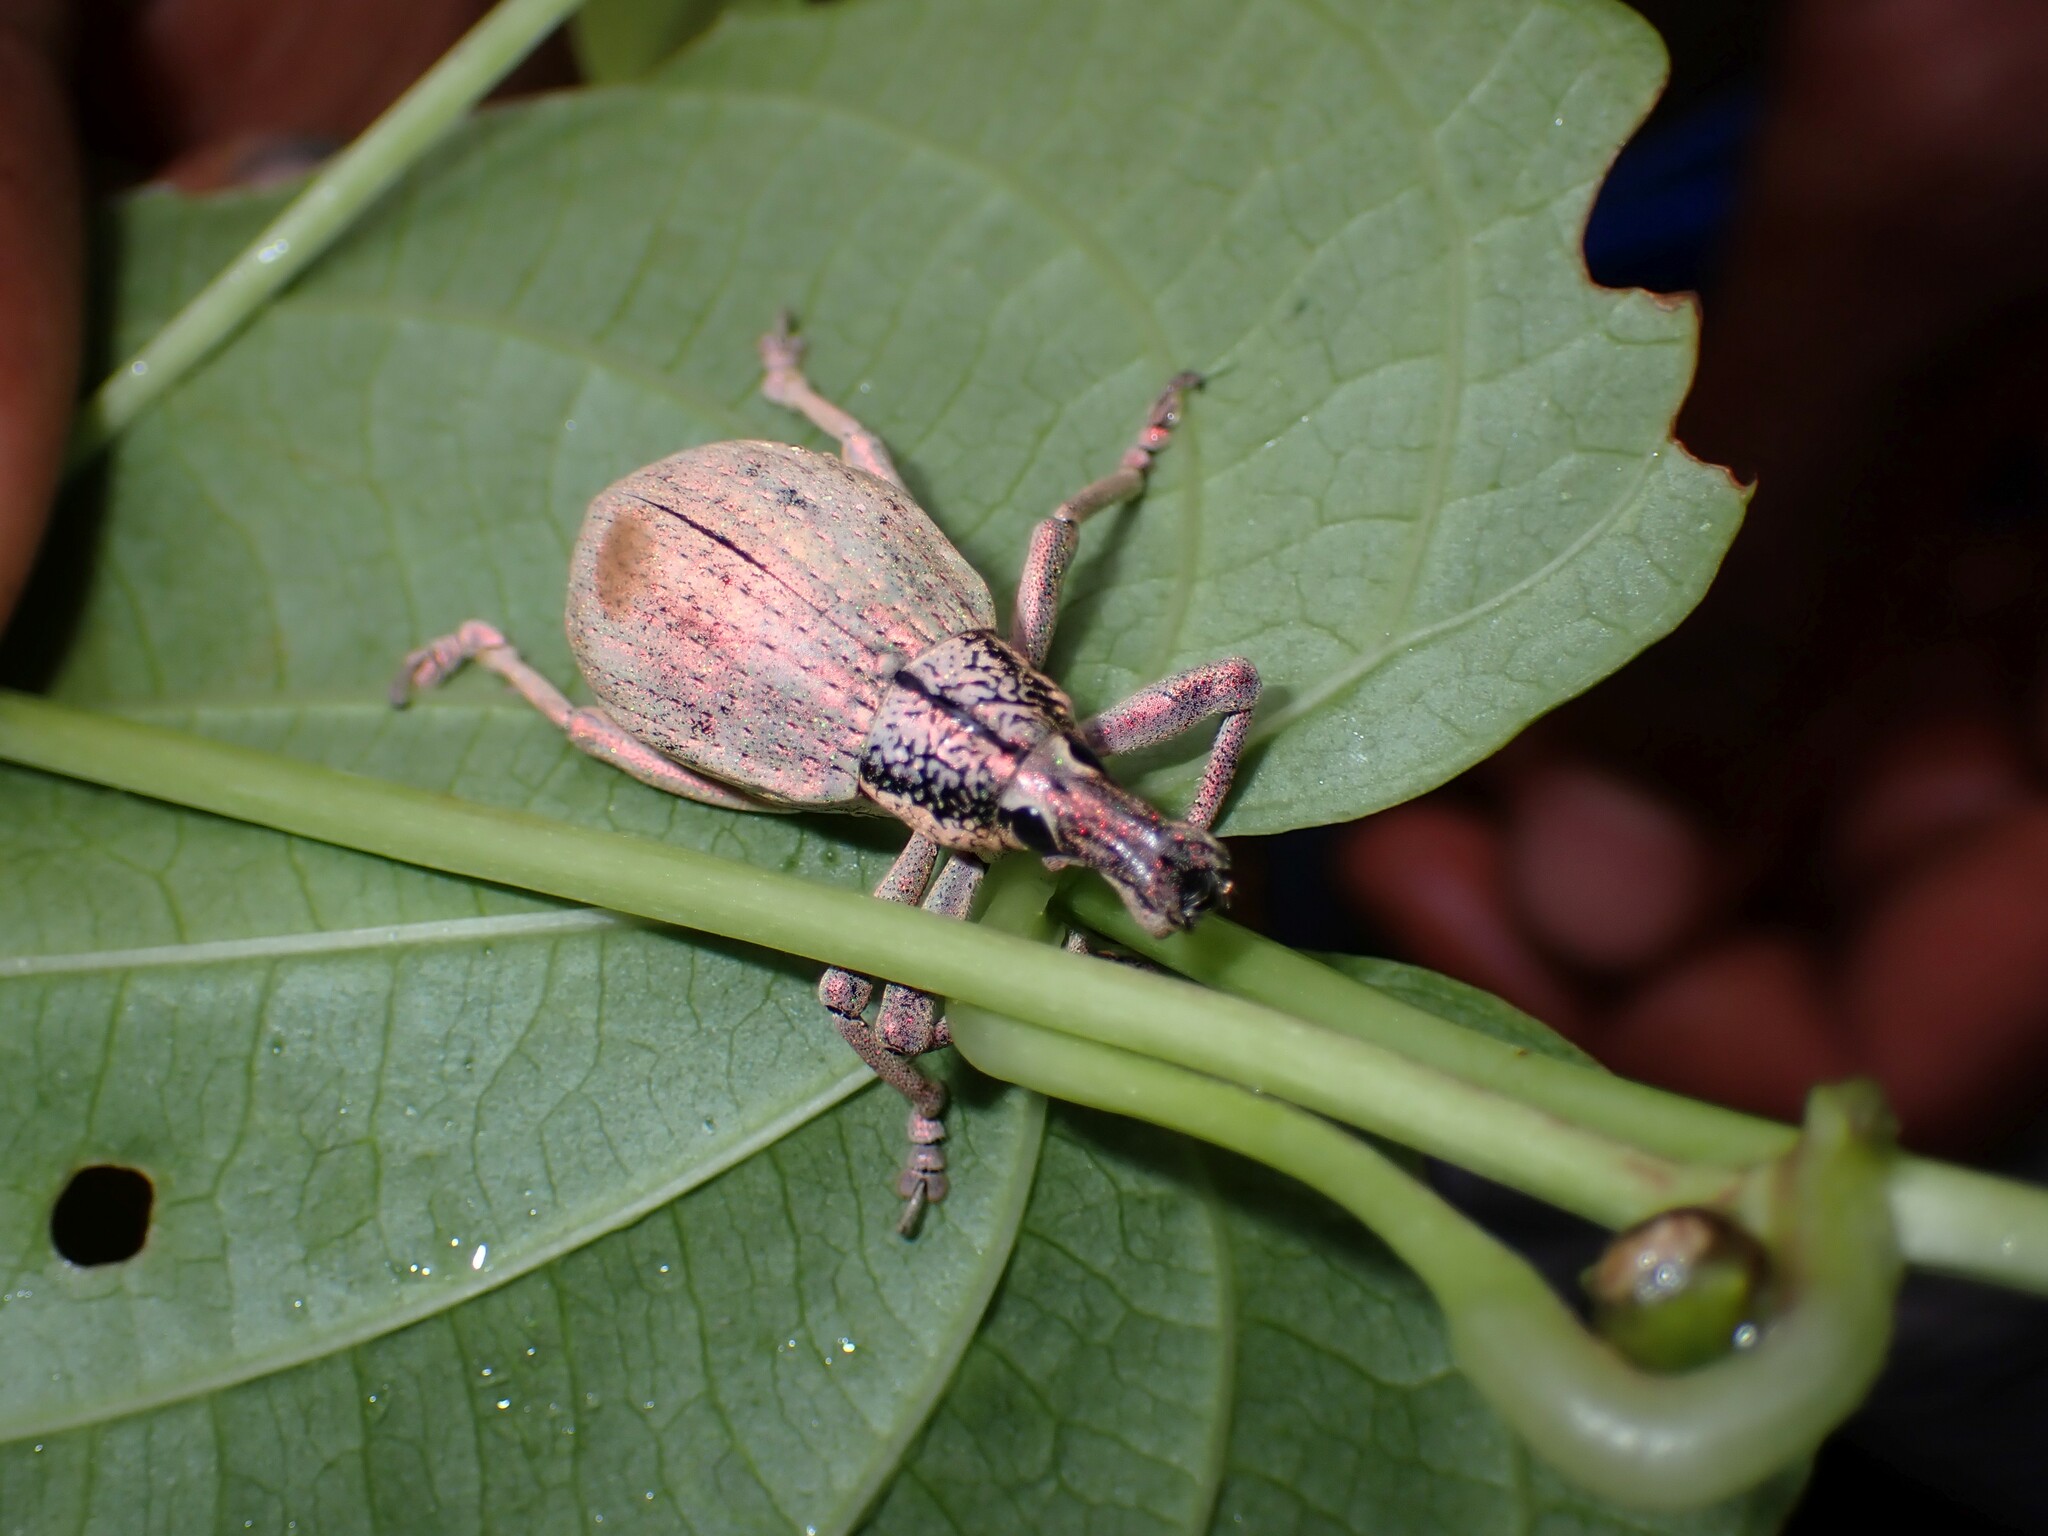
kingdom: Animalia
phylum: Arthropoda
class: Insecta
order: Coleoptera
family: Curculionidae
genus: Rhinoscapha
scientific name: Rhinoscapha meridiana
